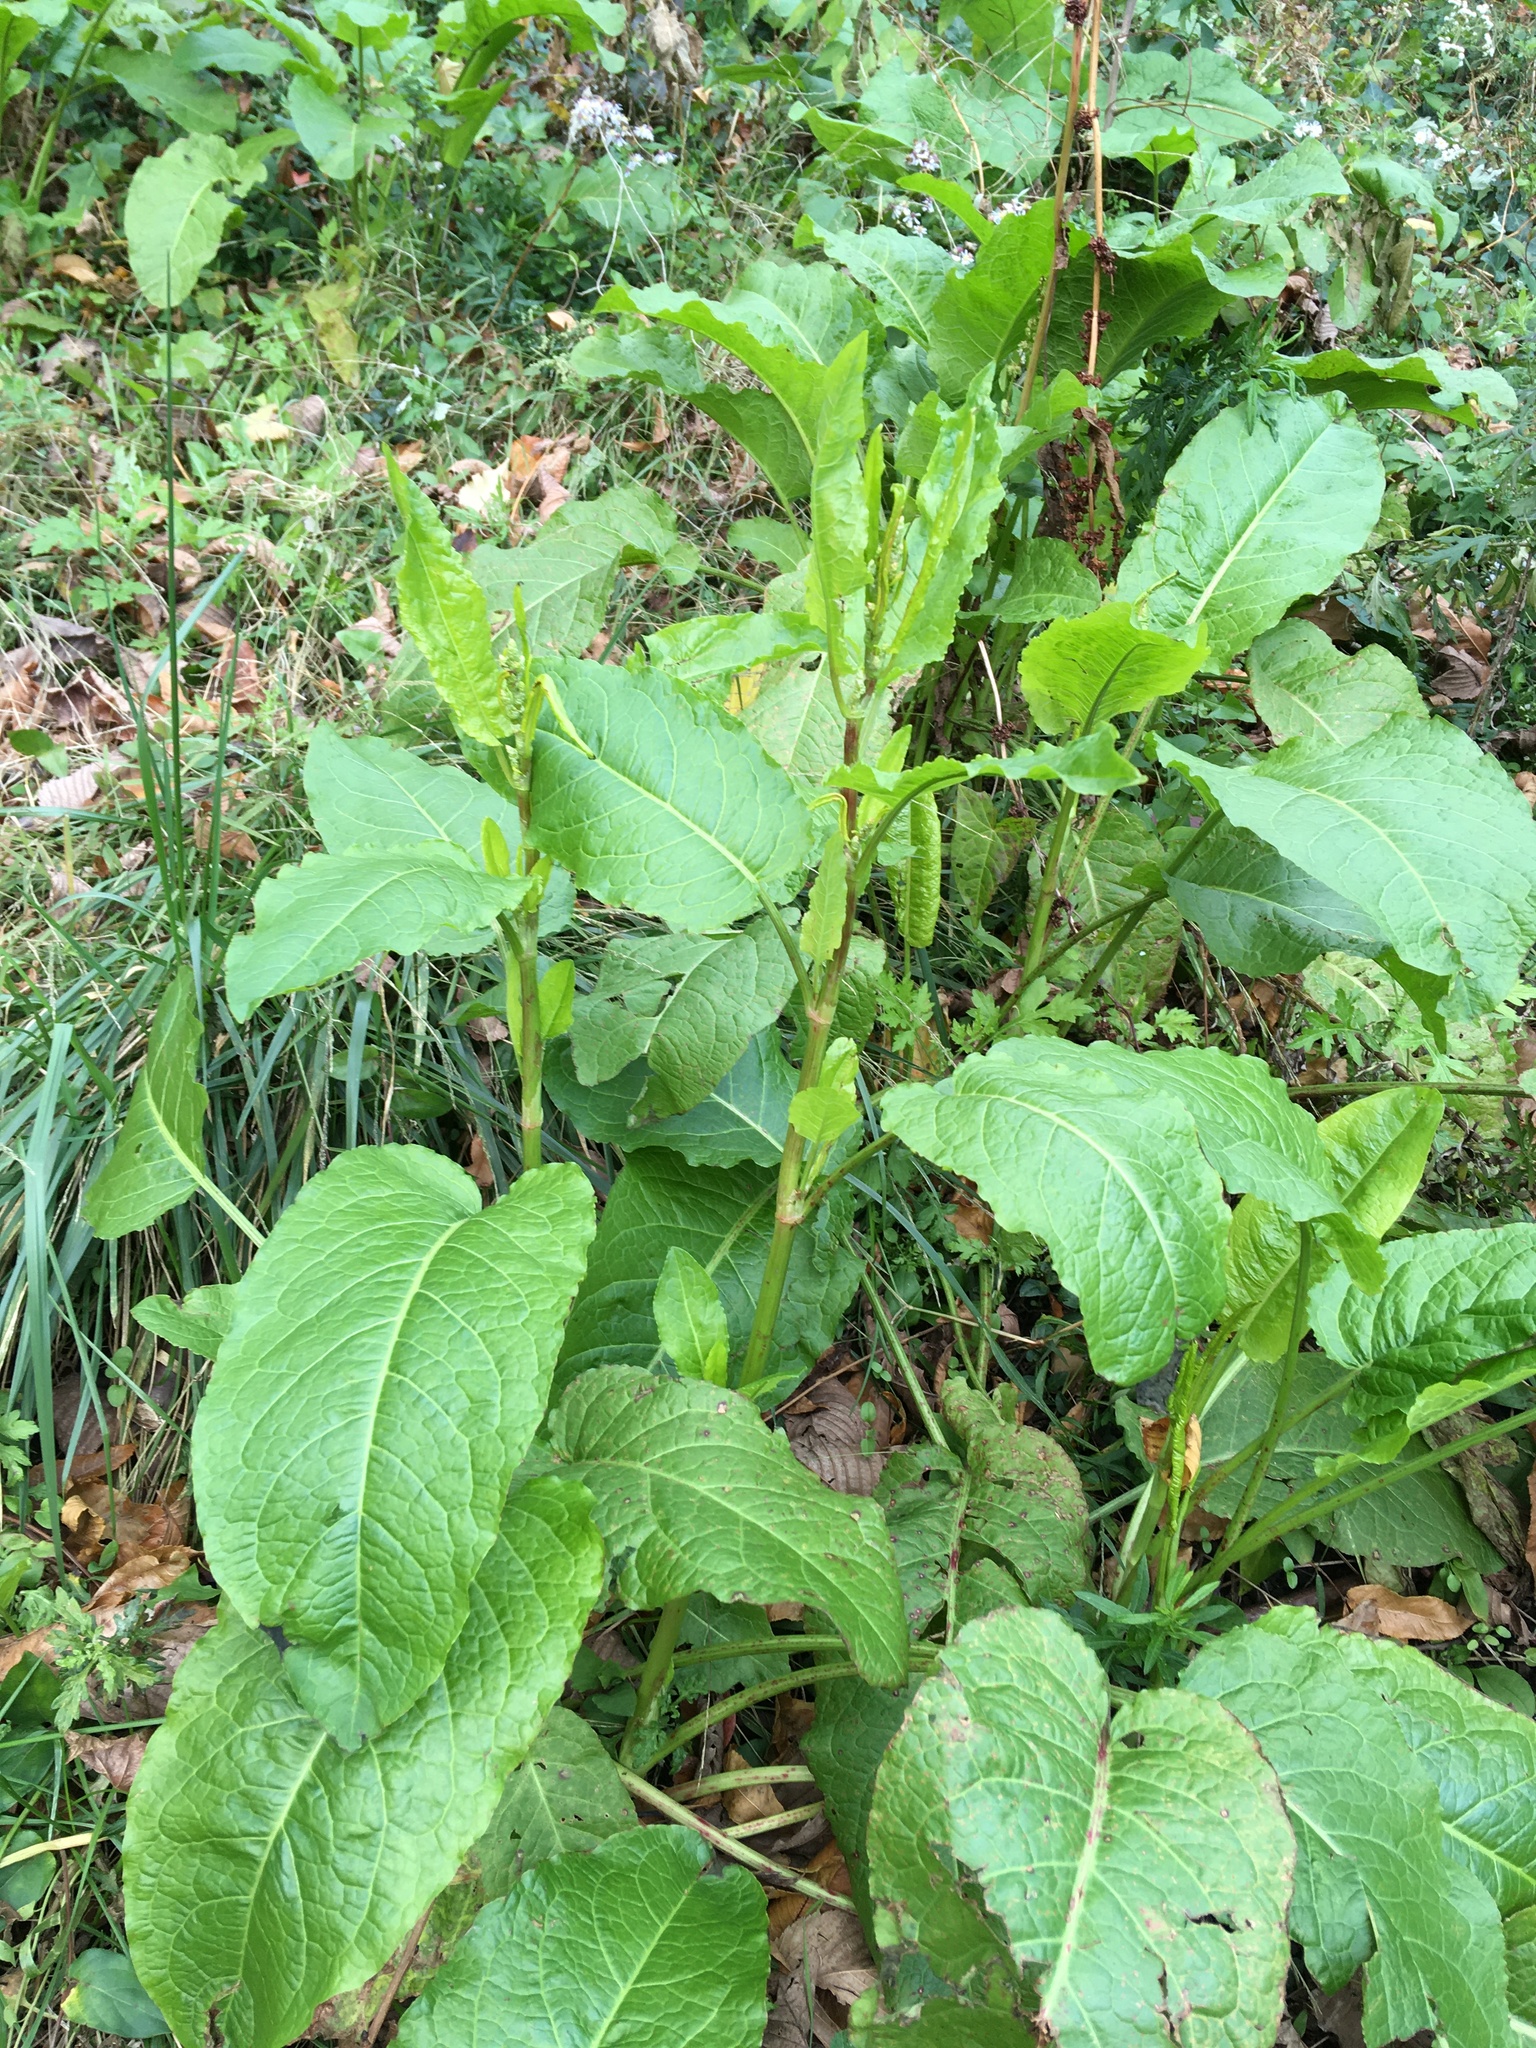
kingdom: Plantae
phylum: Tracheophyta
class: Magnoliopsida
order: Caryophyllales
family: Polygonaceae
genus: Rumex
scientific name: Rumex obtusifolius
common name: Bitter dock
